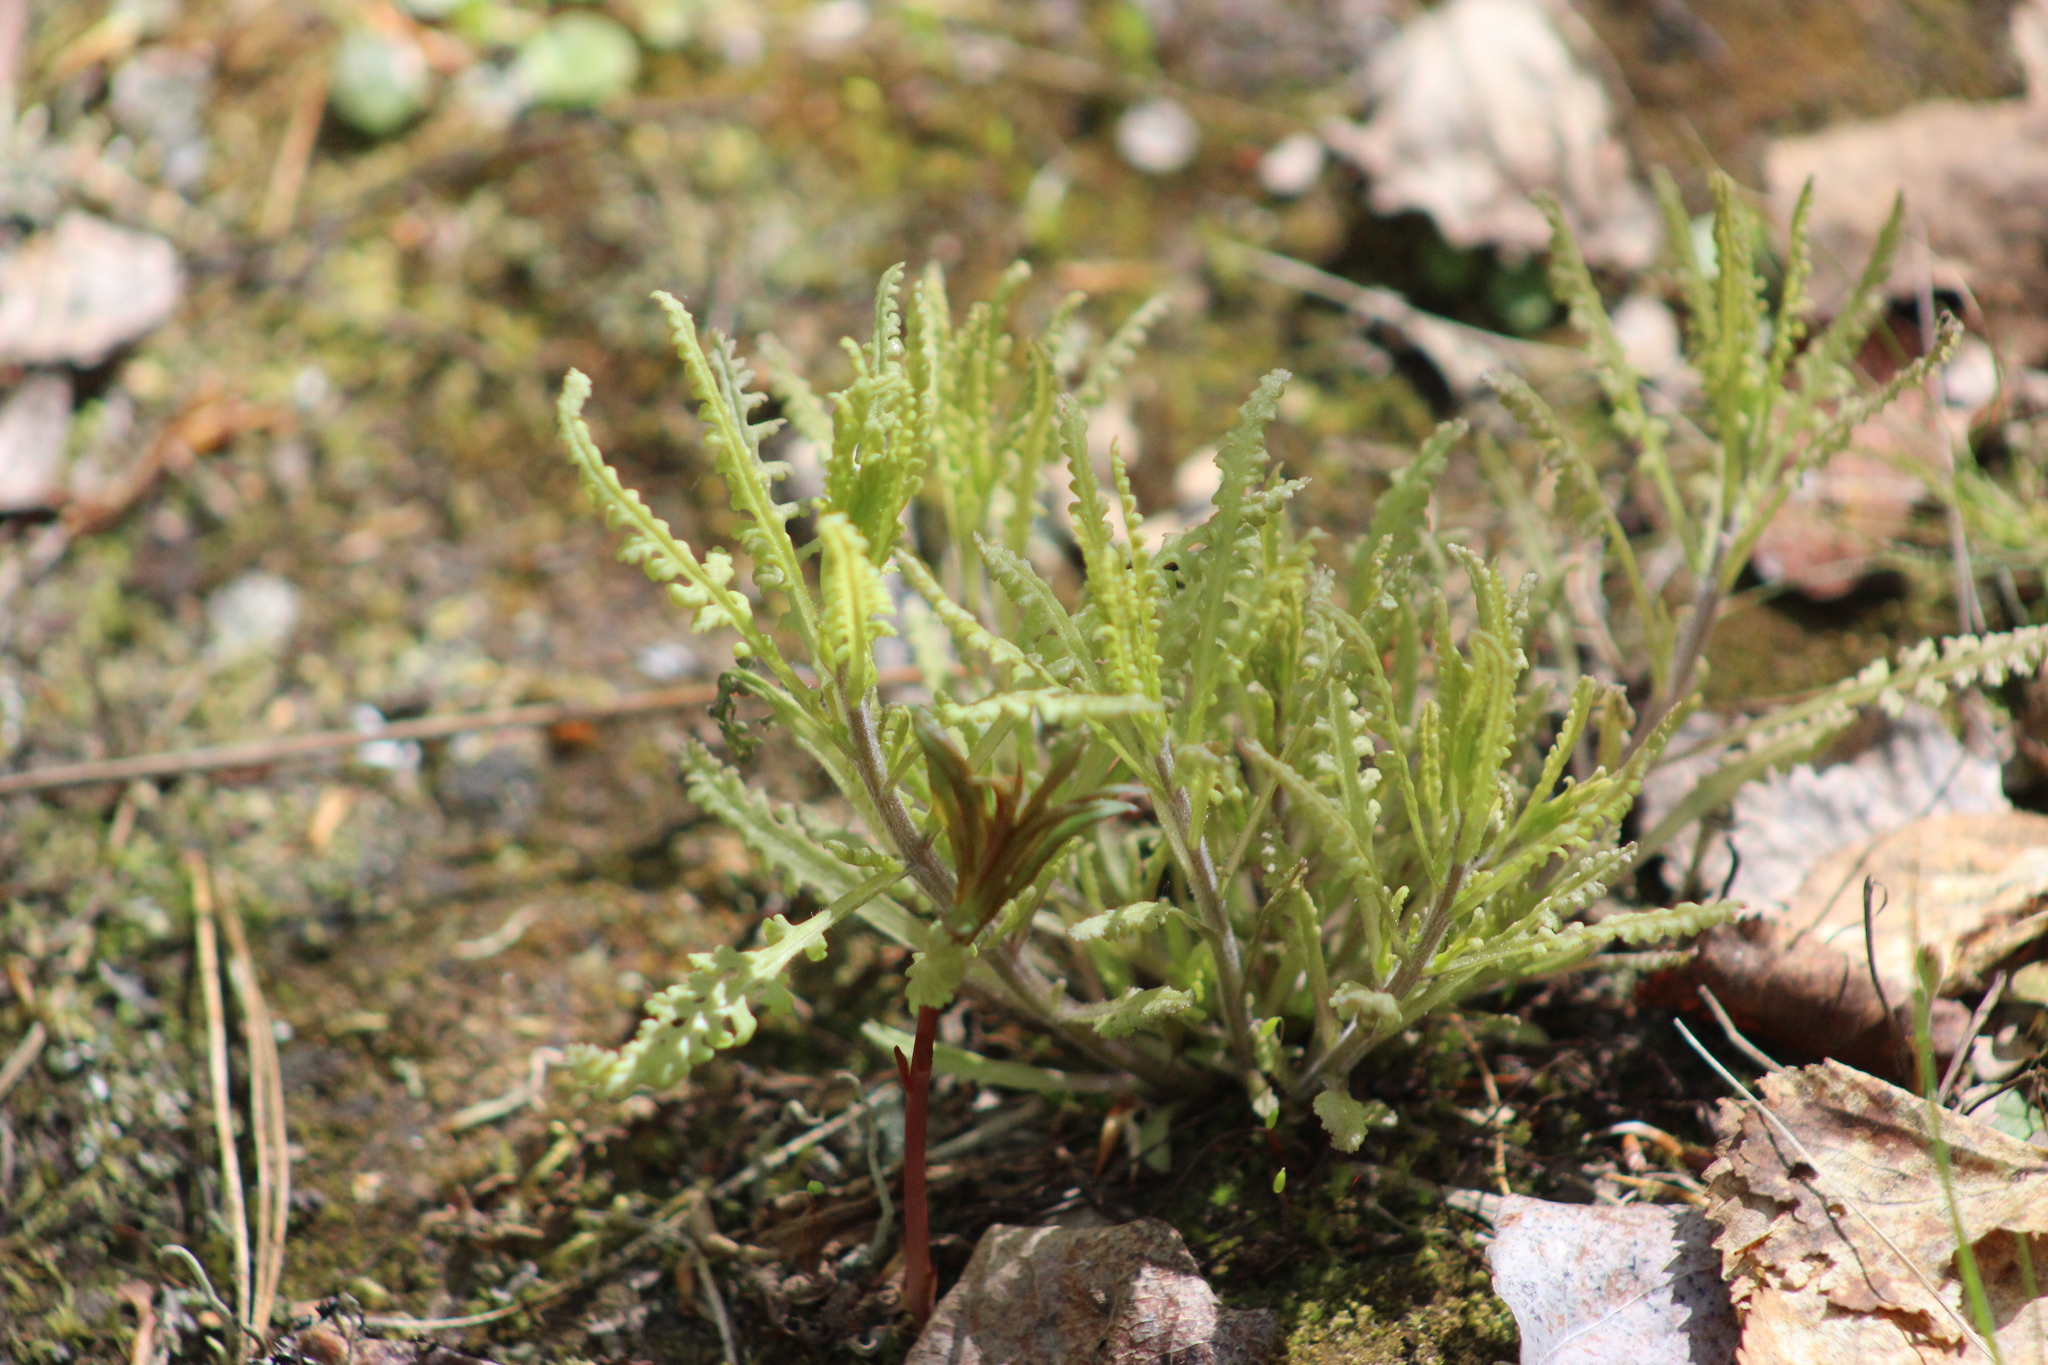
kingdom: Plantae
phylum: Tracheophyta
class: Magnoliopsida
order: Lamiales
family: Orobanchaceae
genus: Pedicularis
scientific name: Pedicularis labradorica
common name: Labrador lousewort
